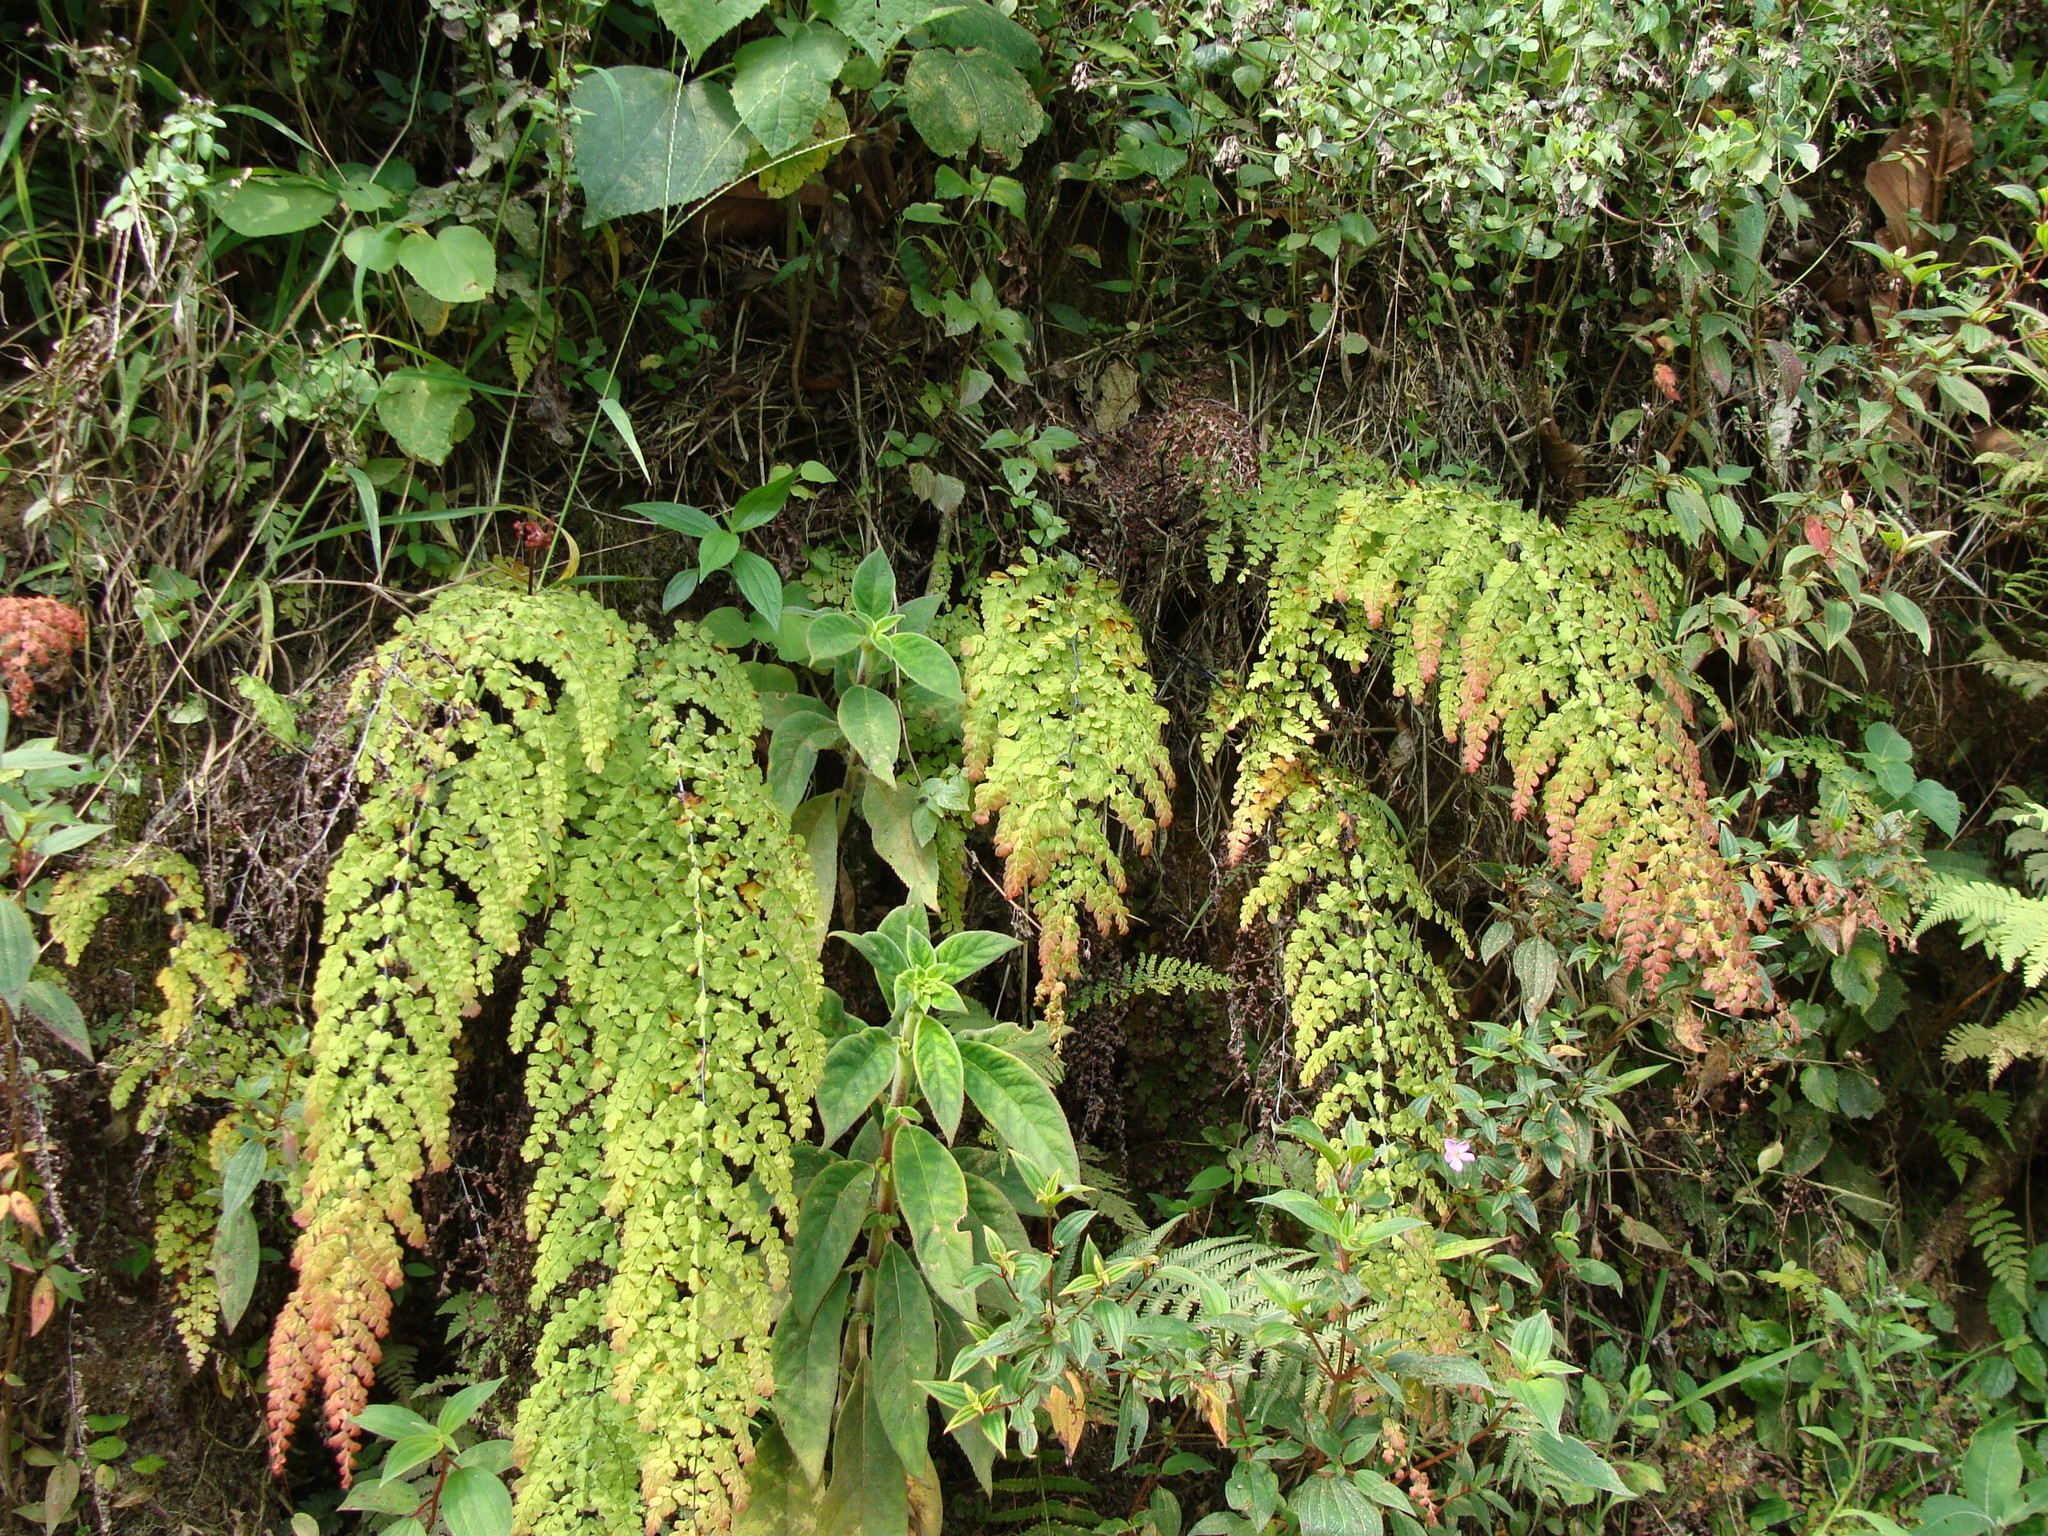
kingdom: Plantae
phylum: Tracheophyta
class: Polypodiopsida
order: Polypodiales
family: Pteridaceae
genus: Adiantum
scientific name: Adiantum concinnum
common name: Brittle maidenhair fern
